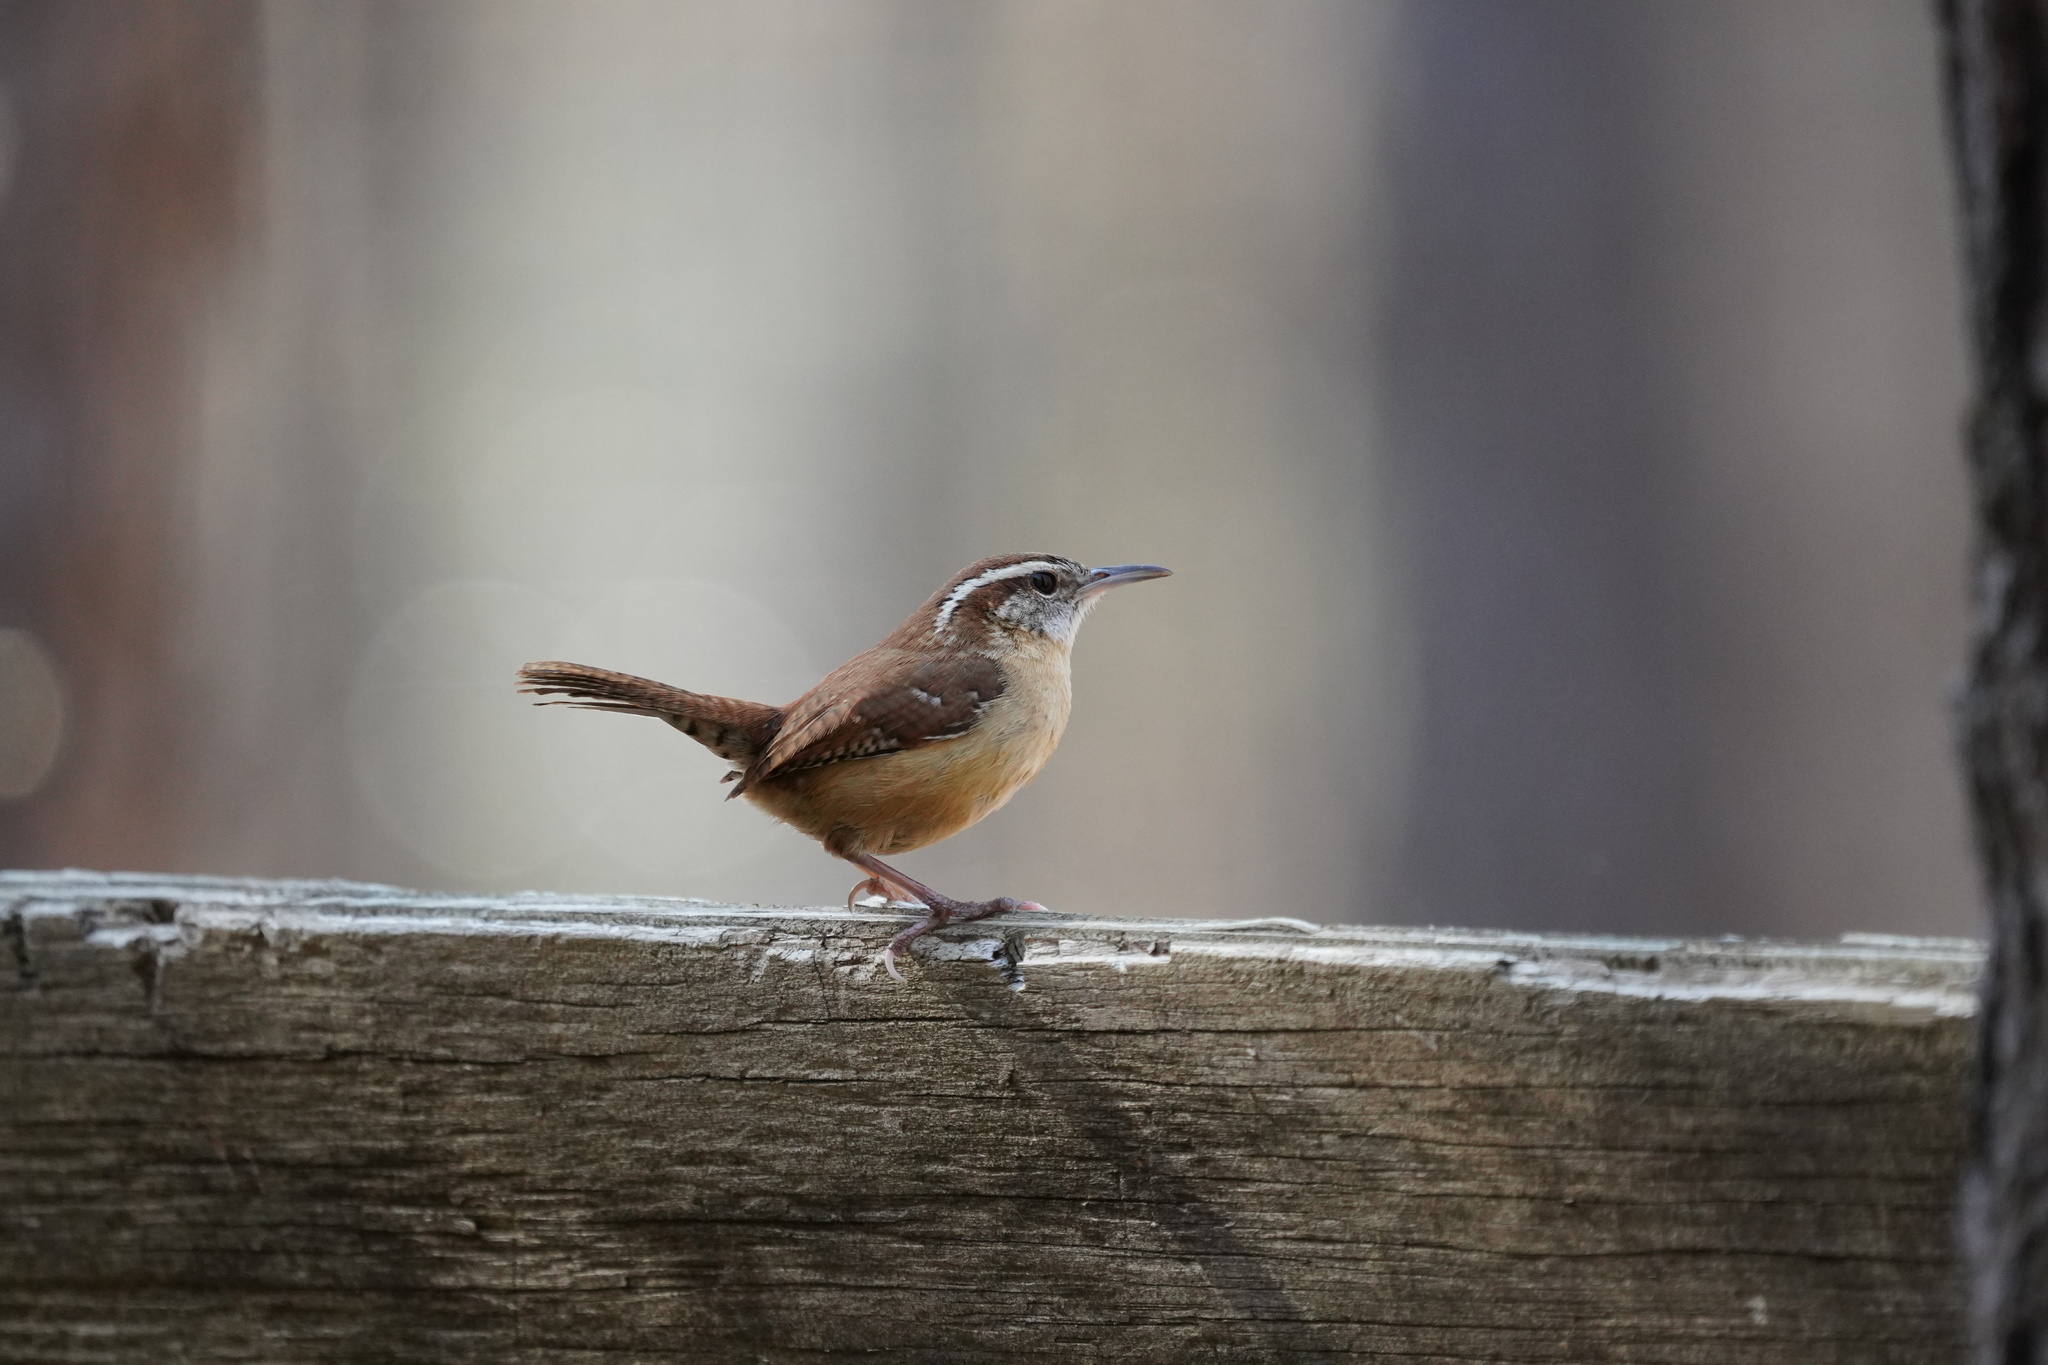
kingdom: Animalia
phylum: Chordata
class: Aves
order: Passeriformes
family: Troglodytidae
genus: Thryothorus
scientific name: Thryothorus ludovicianus
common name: Carolina wren
